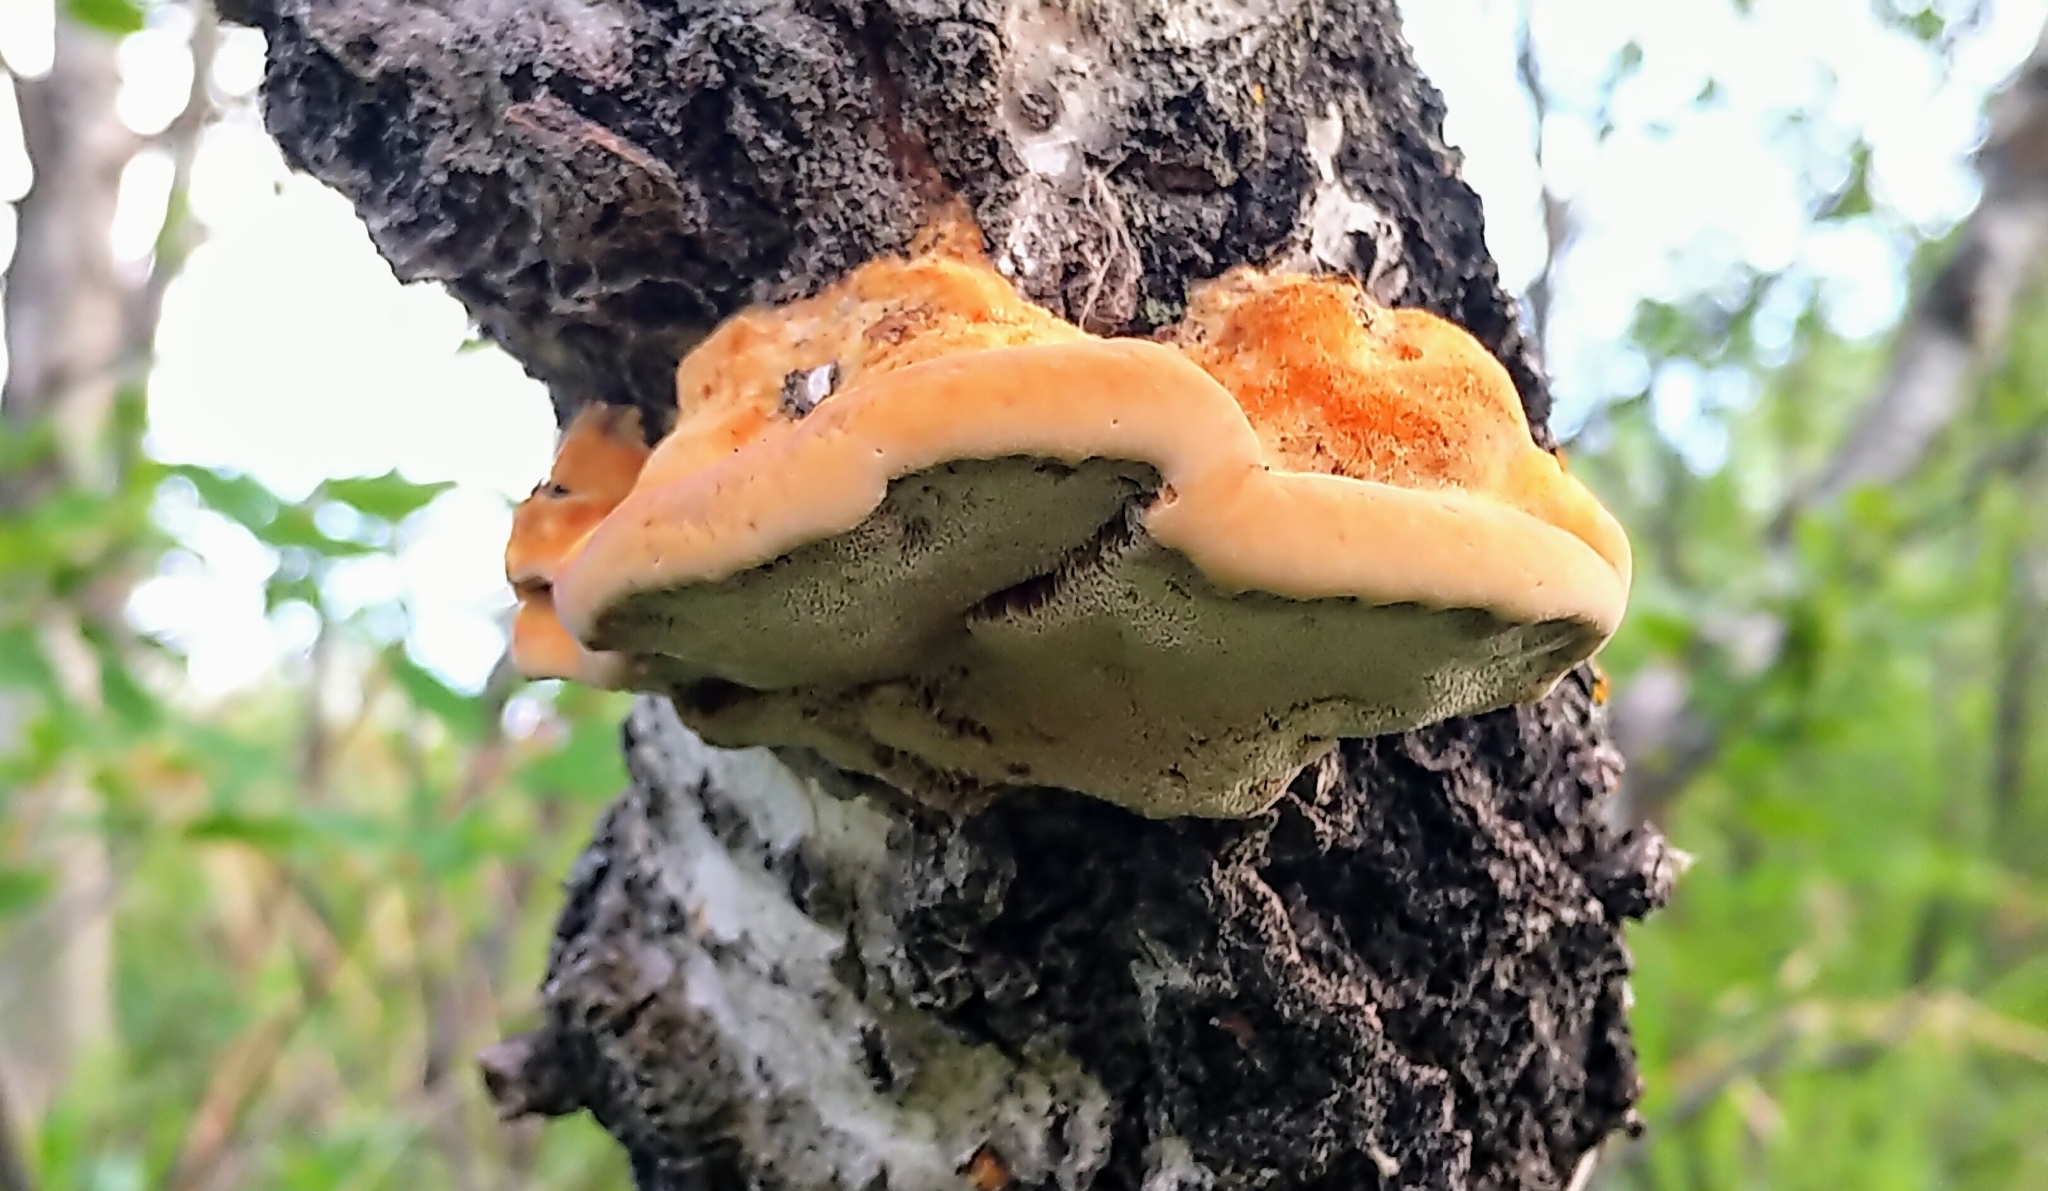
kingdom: Fungi
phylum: Basidiomycota
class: Agaricomycetes
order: Hymenochaetales
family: Hymenochaetaceae
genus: Inocutis
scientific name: Inocutis rheades
